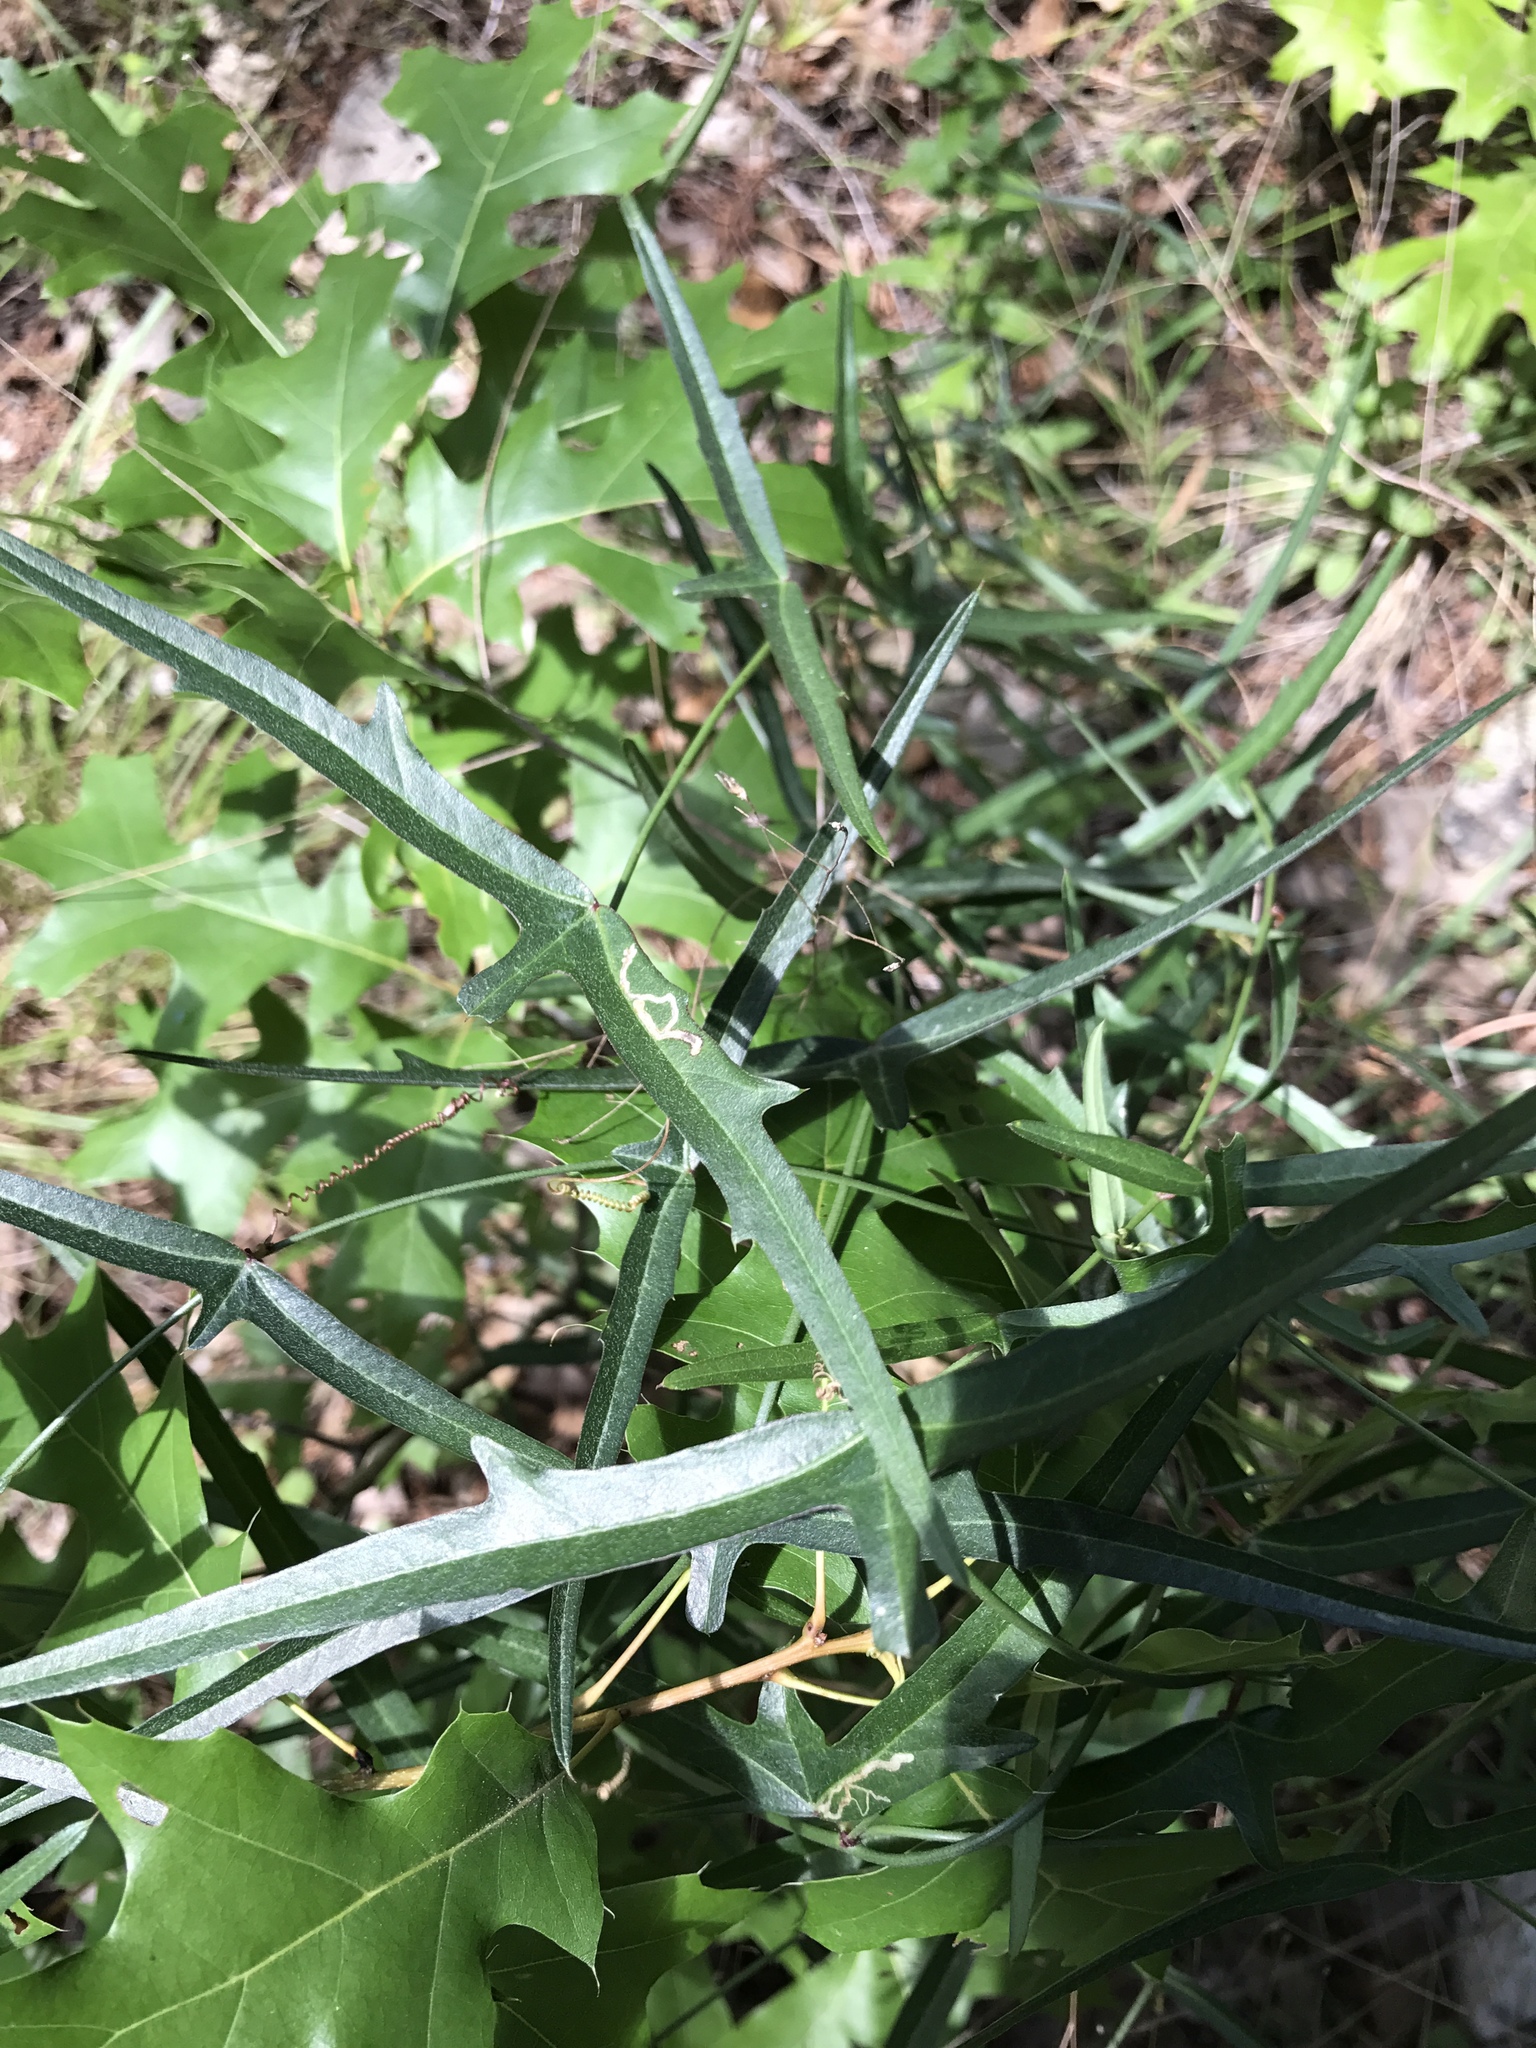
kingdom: Plantae
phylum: Tracheophyta
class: Magnoliopsida
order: Malpighiales
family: Passifloraceae
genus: Passiflora
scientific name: Passiflora tenuiloba
